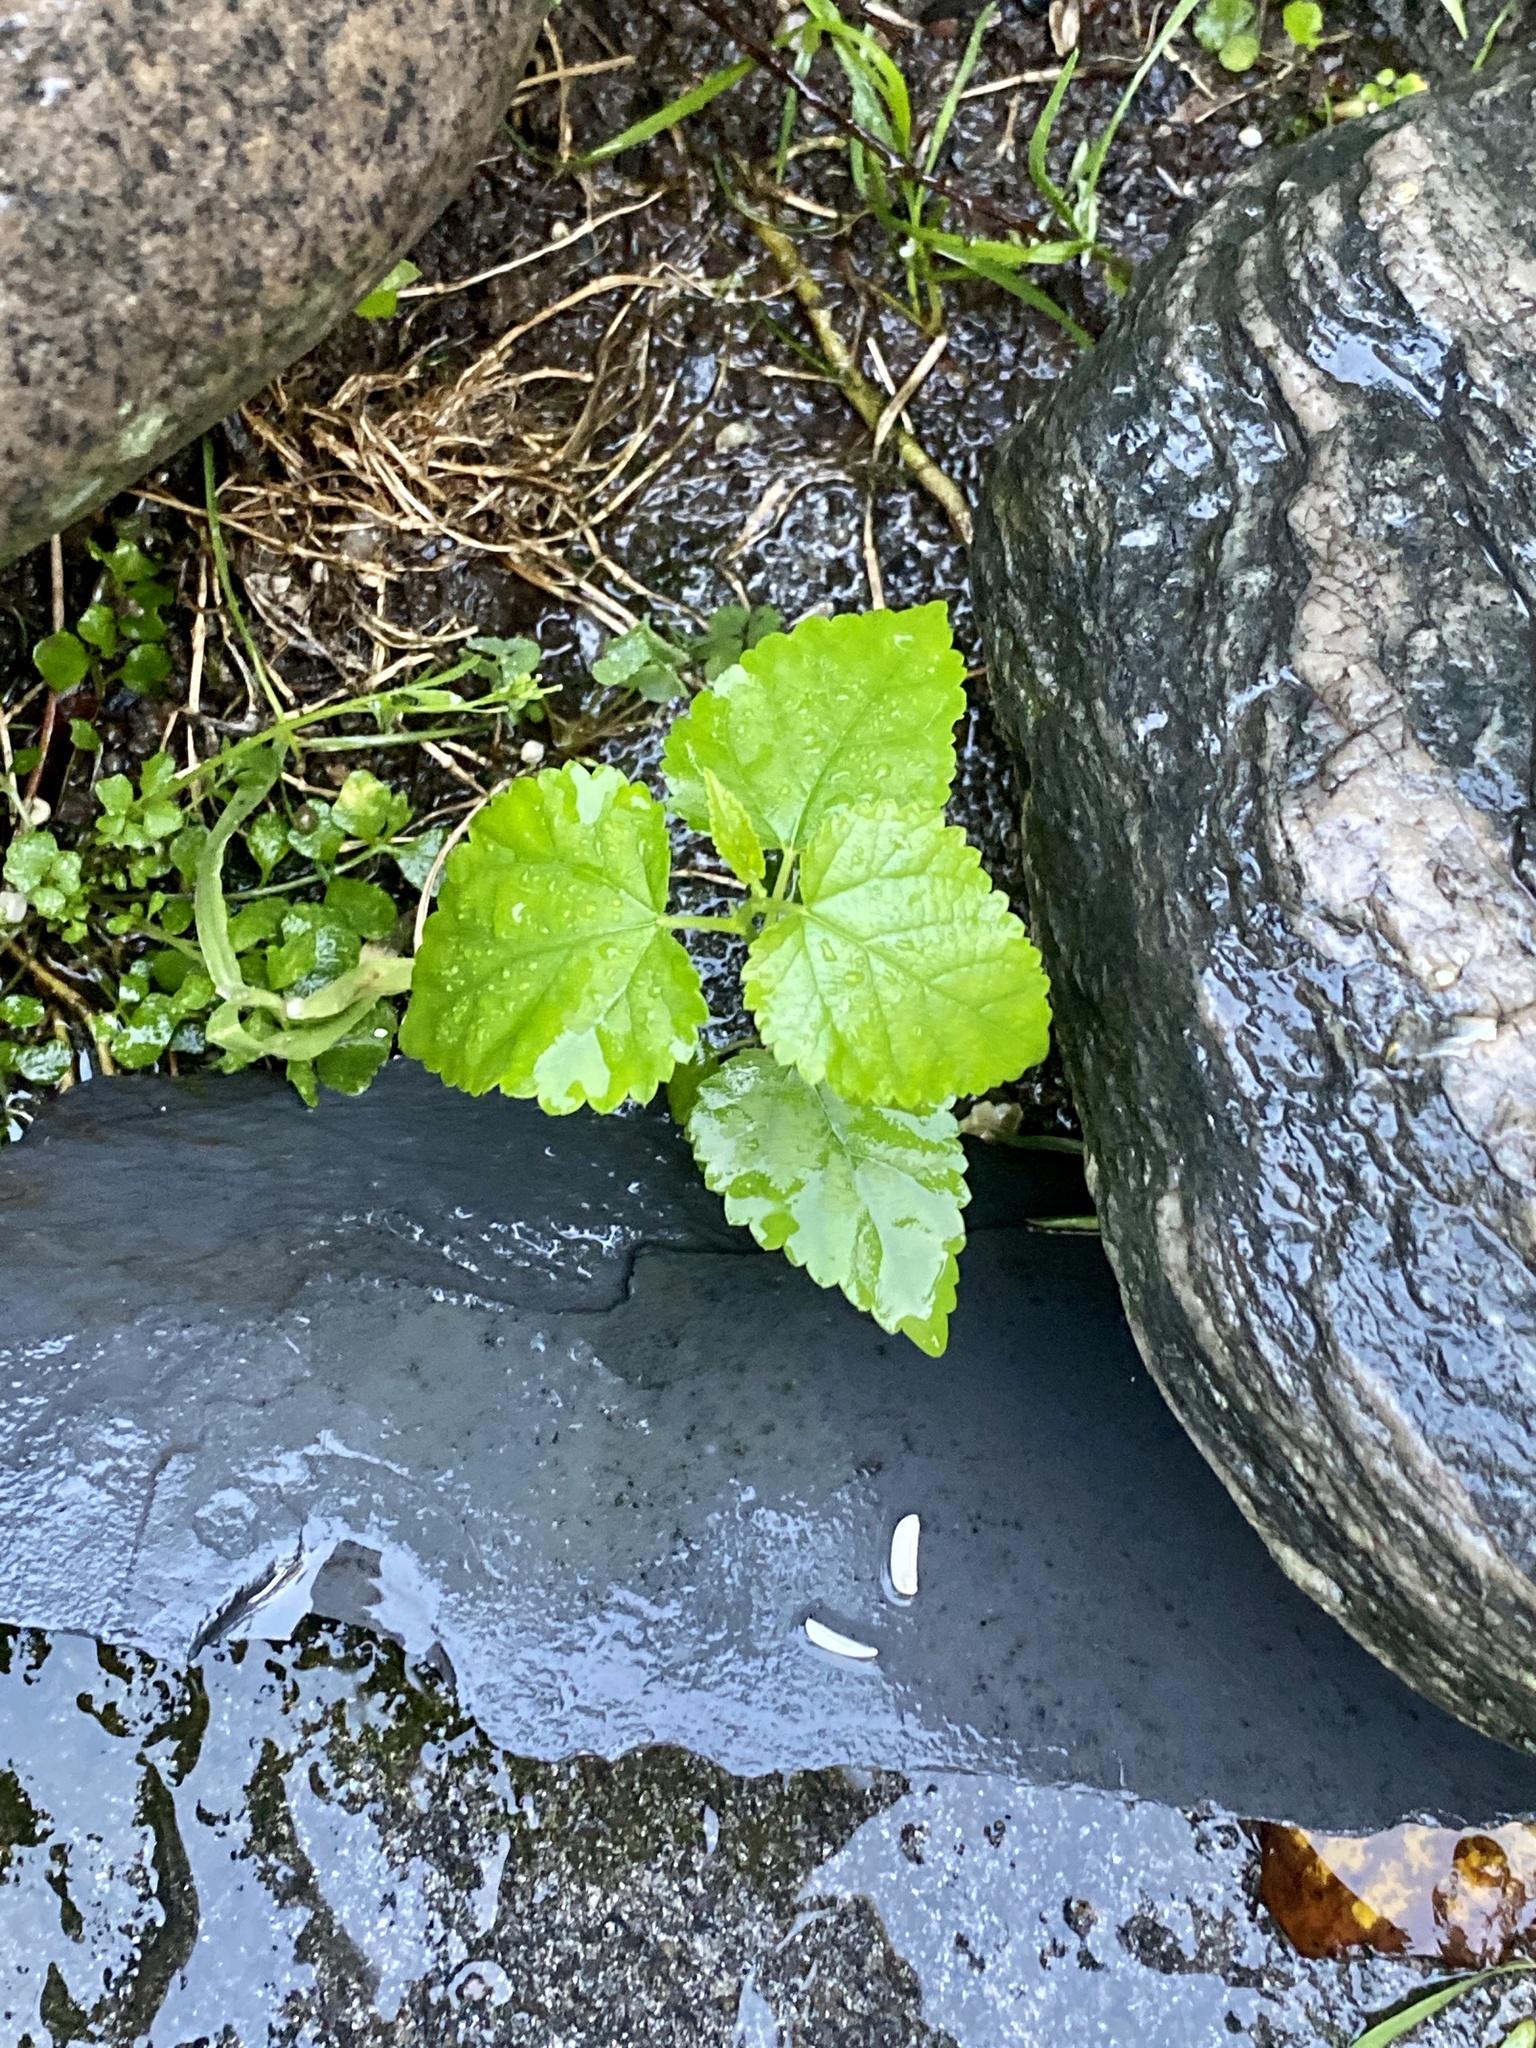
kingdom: Plantae
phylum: Tracheophyta
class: Magnoliopsida
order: Rosales
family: Moraceae
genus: Morus
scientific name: Morus alba
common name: White mulberry
